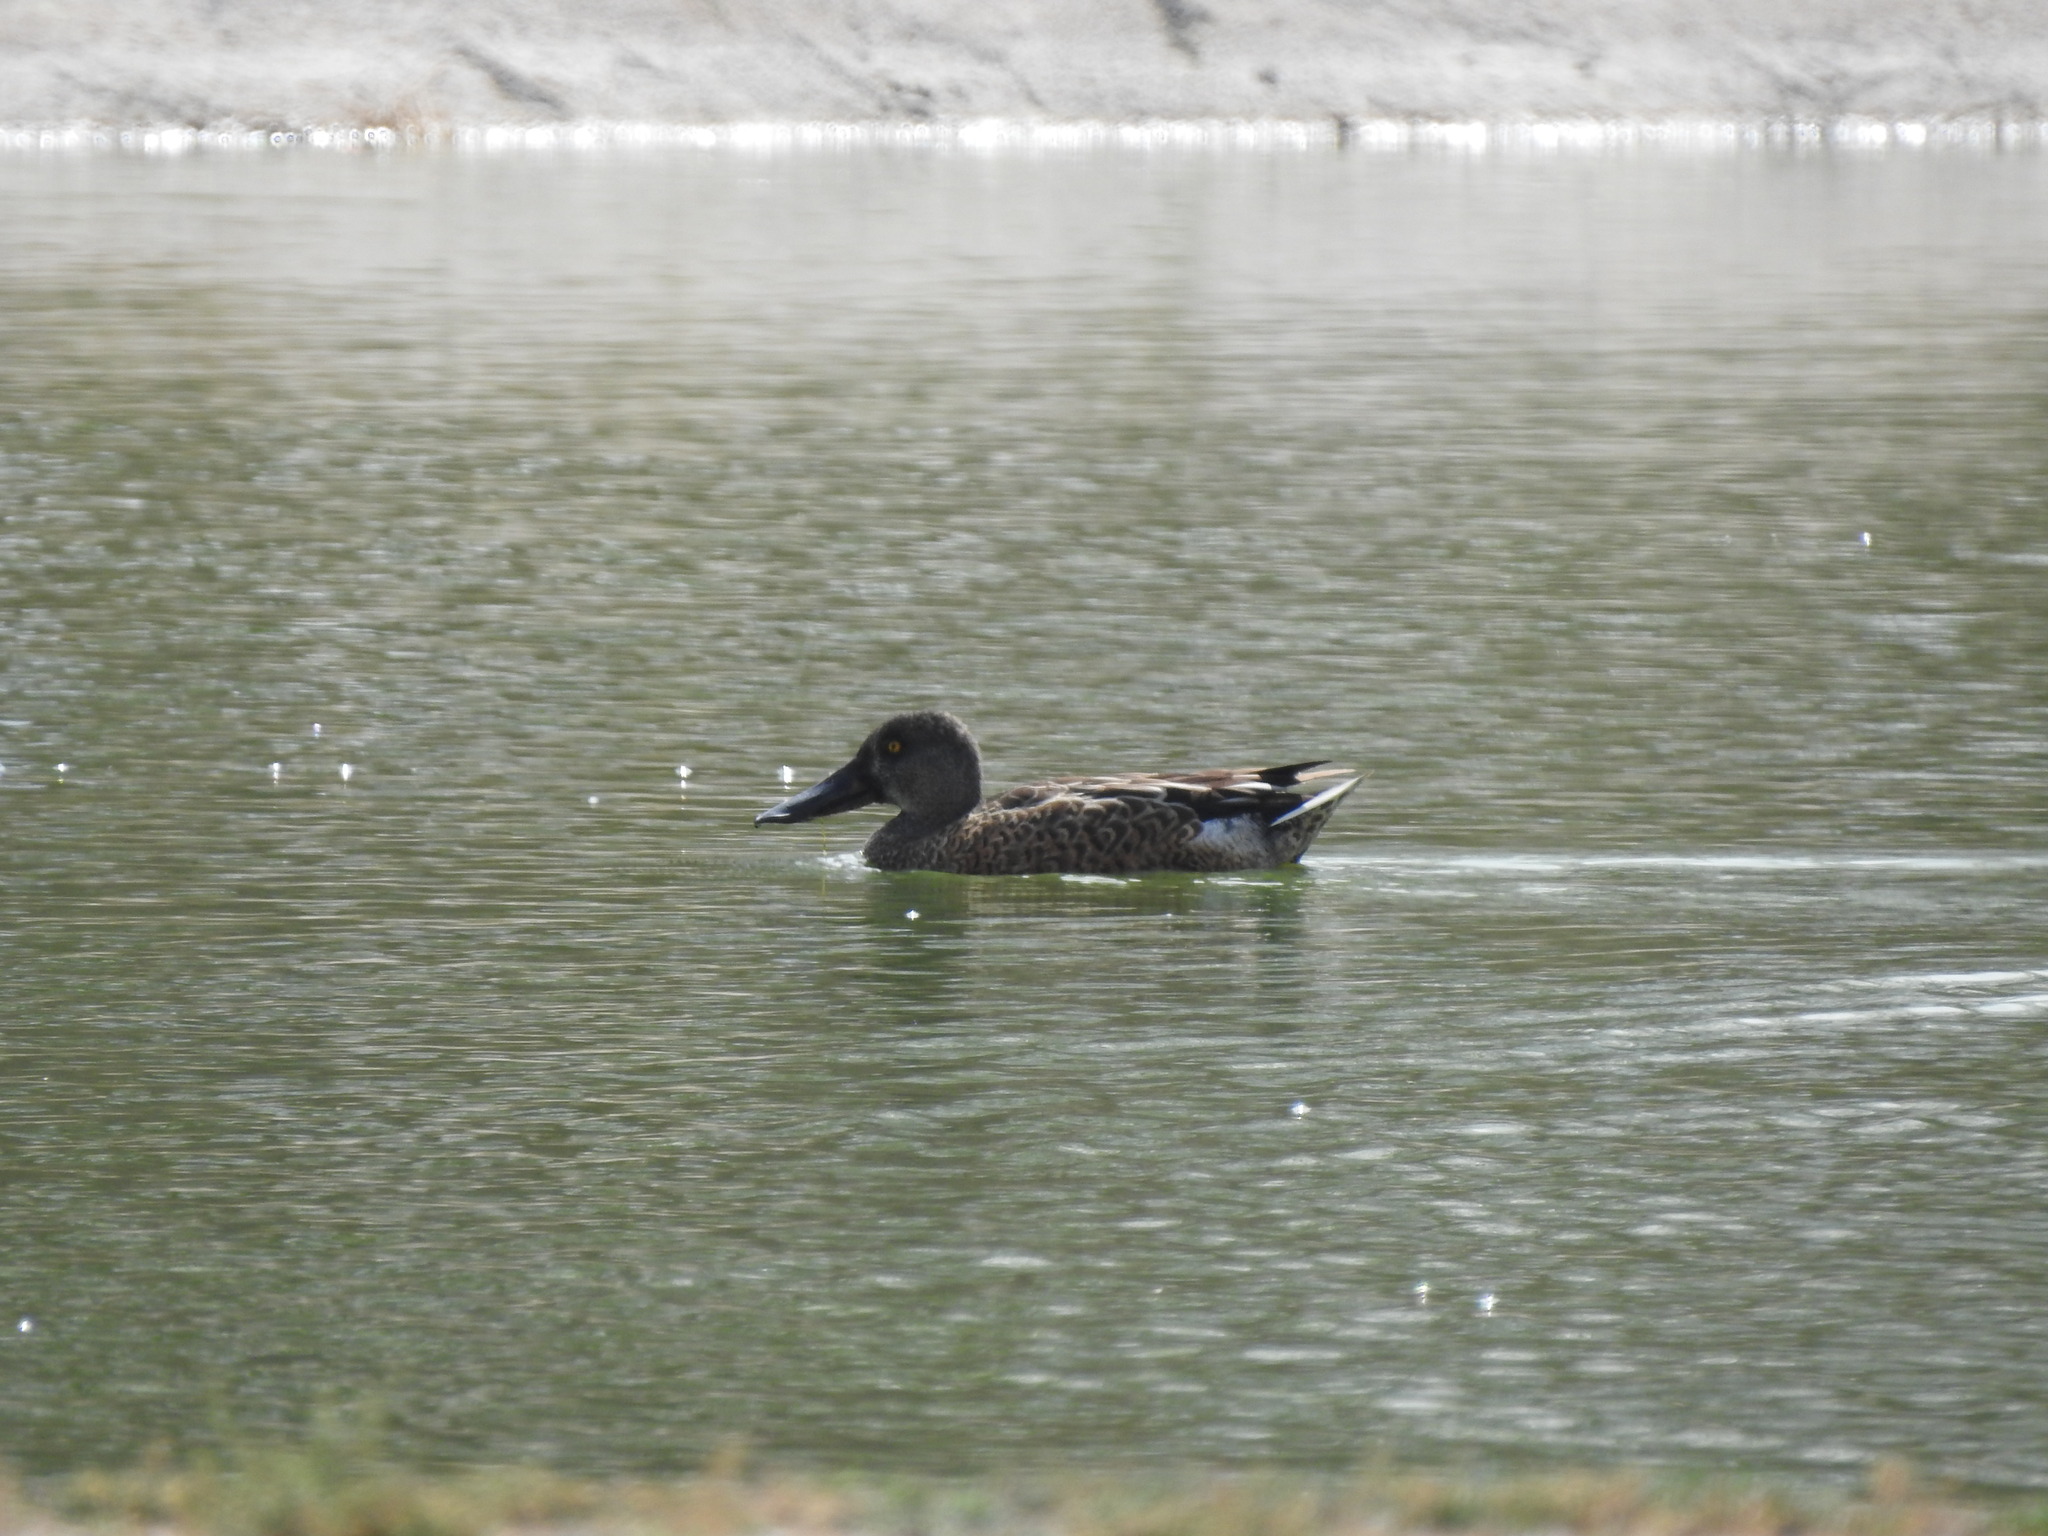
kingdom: Animalia
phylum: Chordata
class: Aves
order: Anseriformes
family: Anatidae
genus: Spatula
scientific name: Spatula clypeata
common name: Northern shoveler
